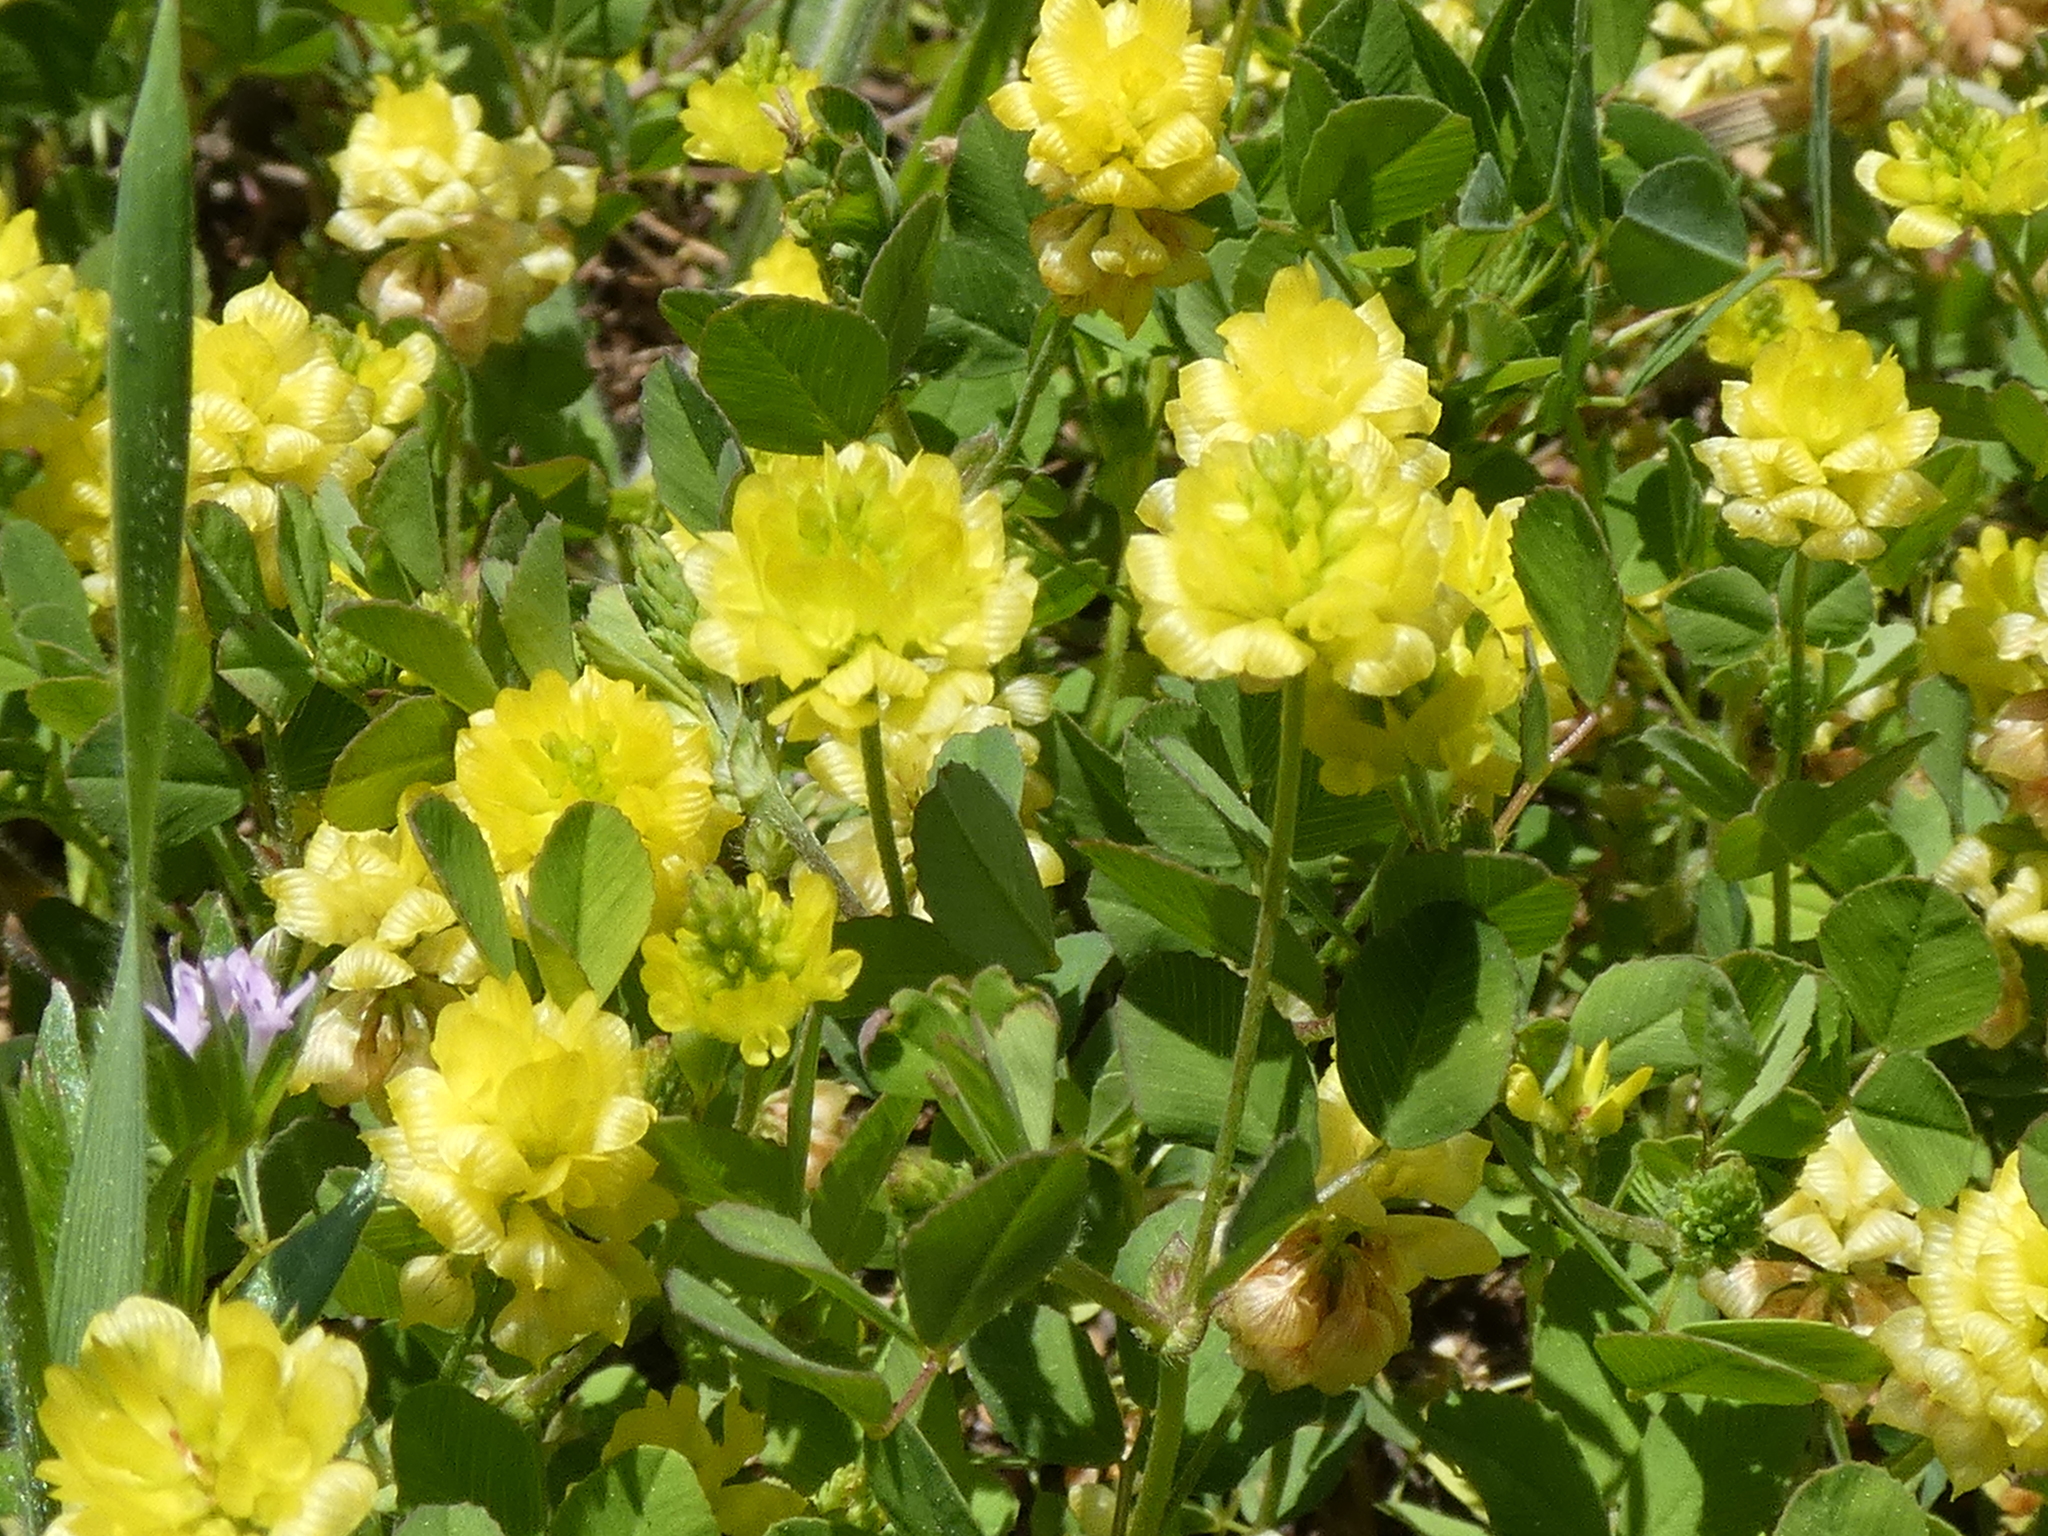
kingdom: Plantae
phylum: Tracheophyta
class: Magnoliopsida
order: Fabales
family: Fabaceae
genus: Trifolium
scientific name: Trifolium campestre
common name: Field clover
